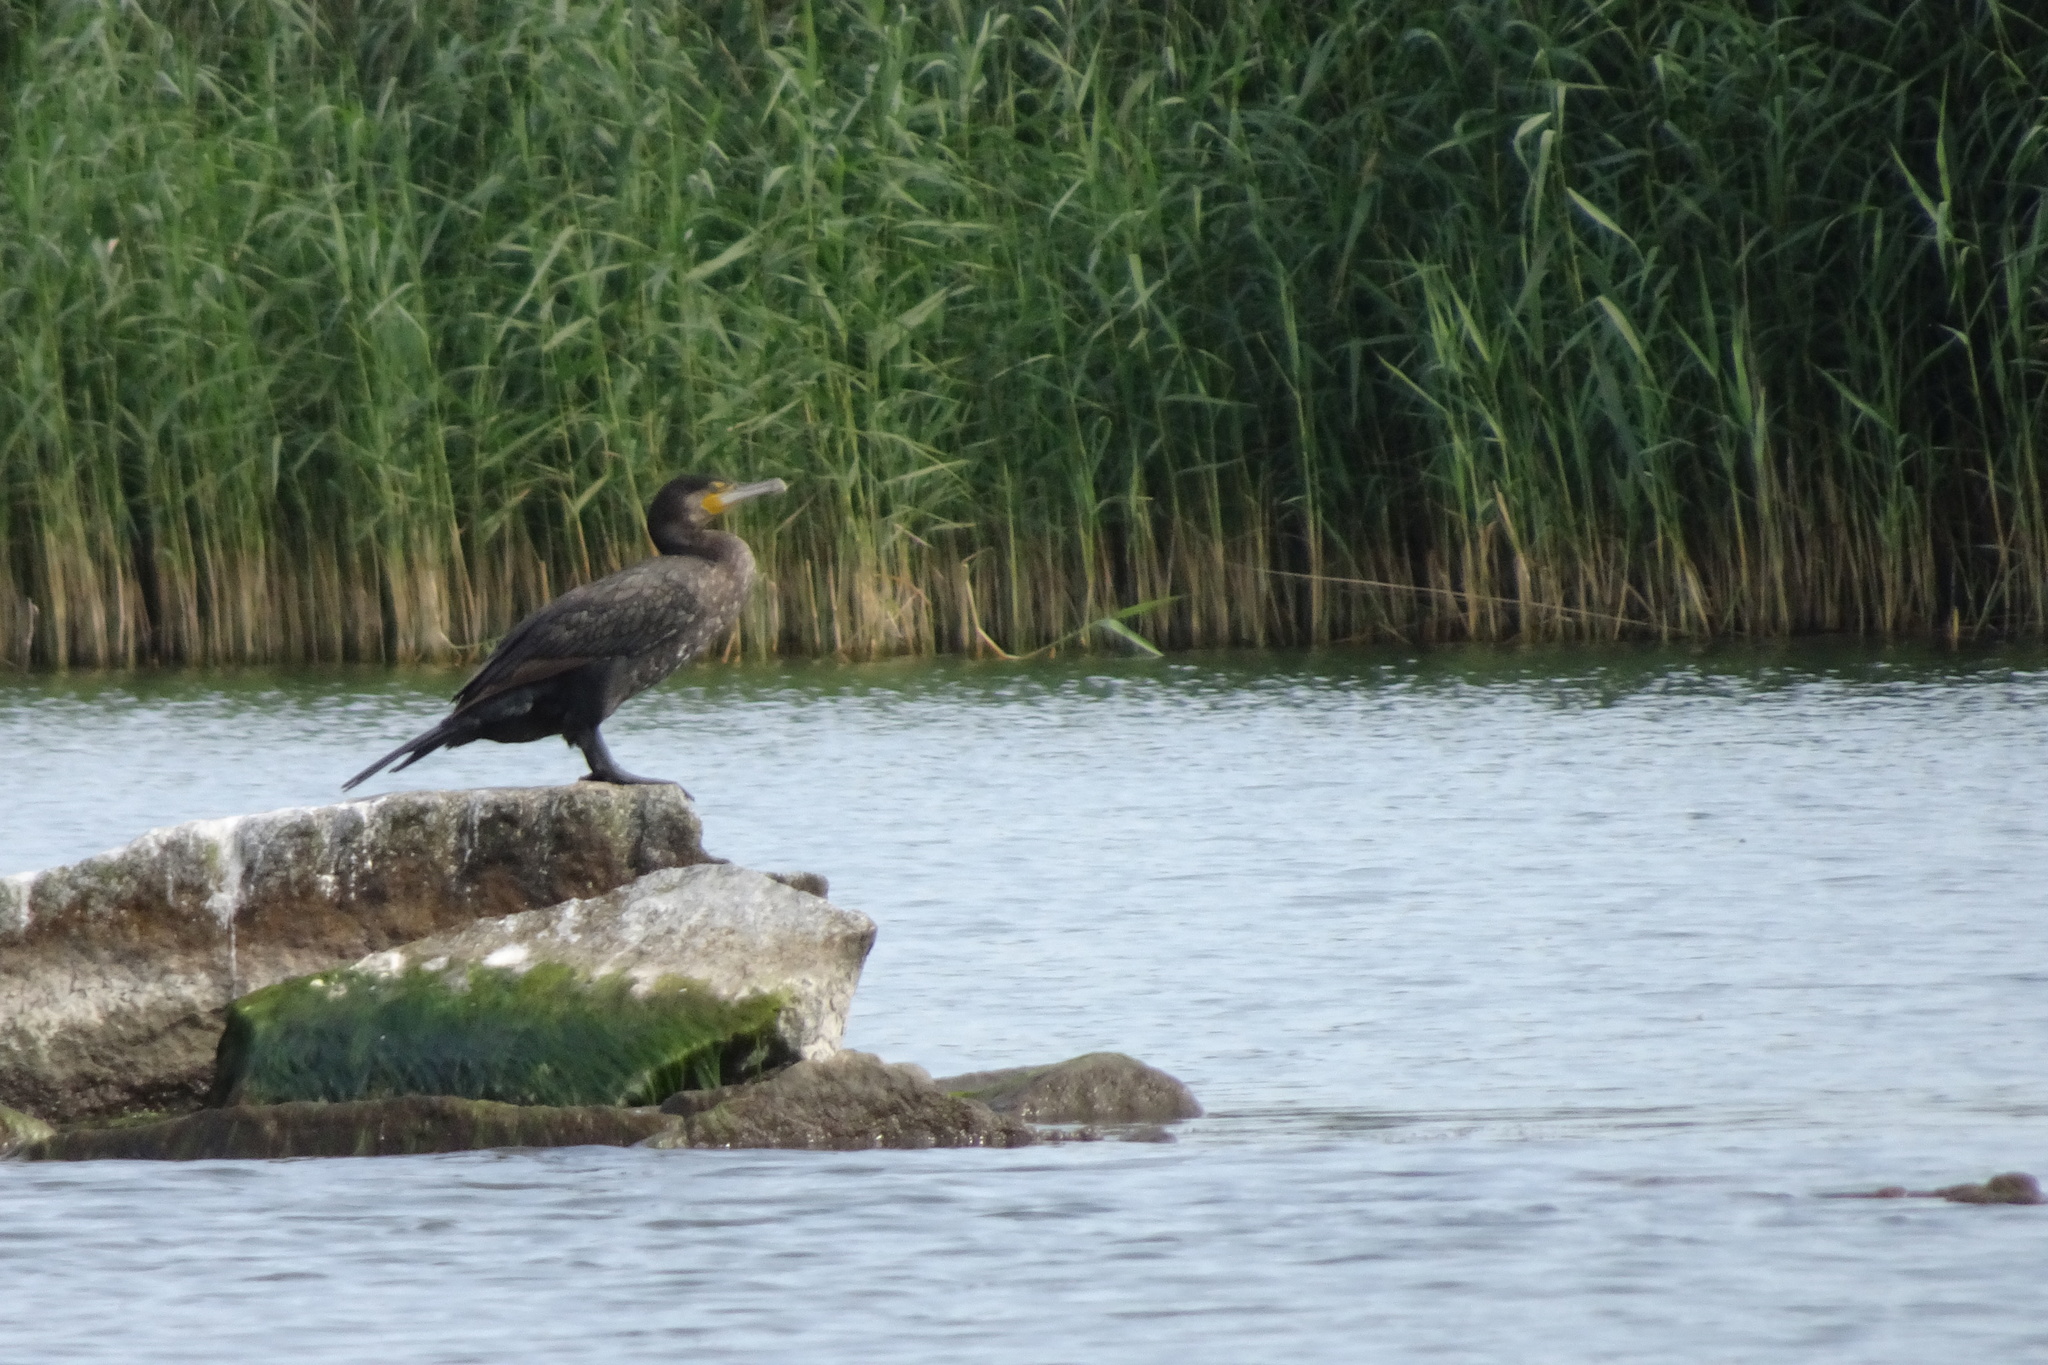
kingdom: Animalia
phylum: Chordata
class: Aves
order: Suliformes
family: Phalacrocoracidae
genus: Phalacrocorax
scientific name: Phalacrocorax carbo
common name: Great cormorant
